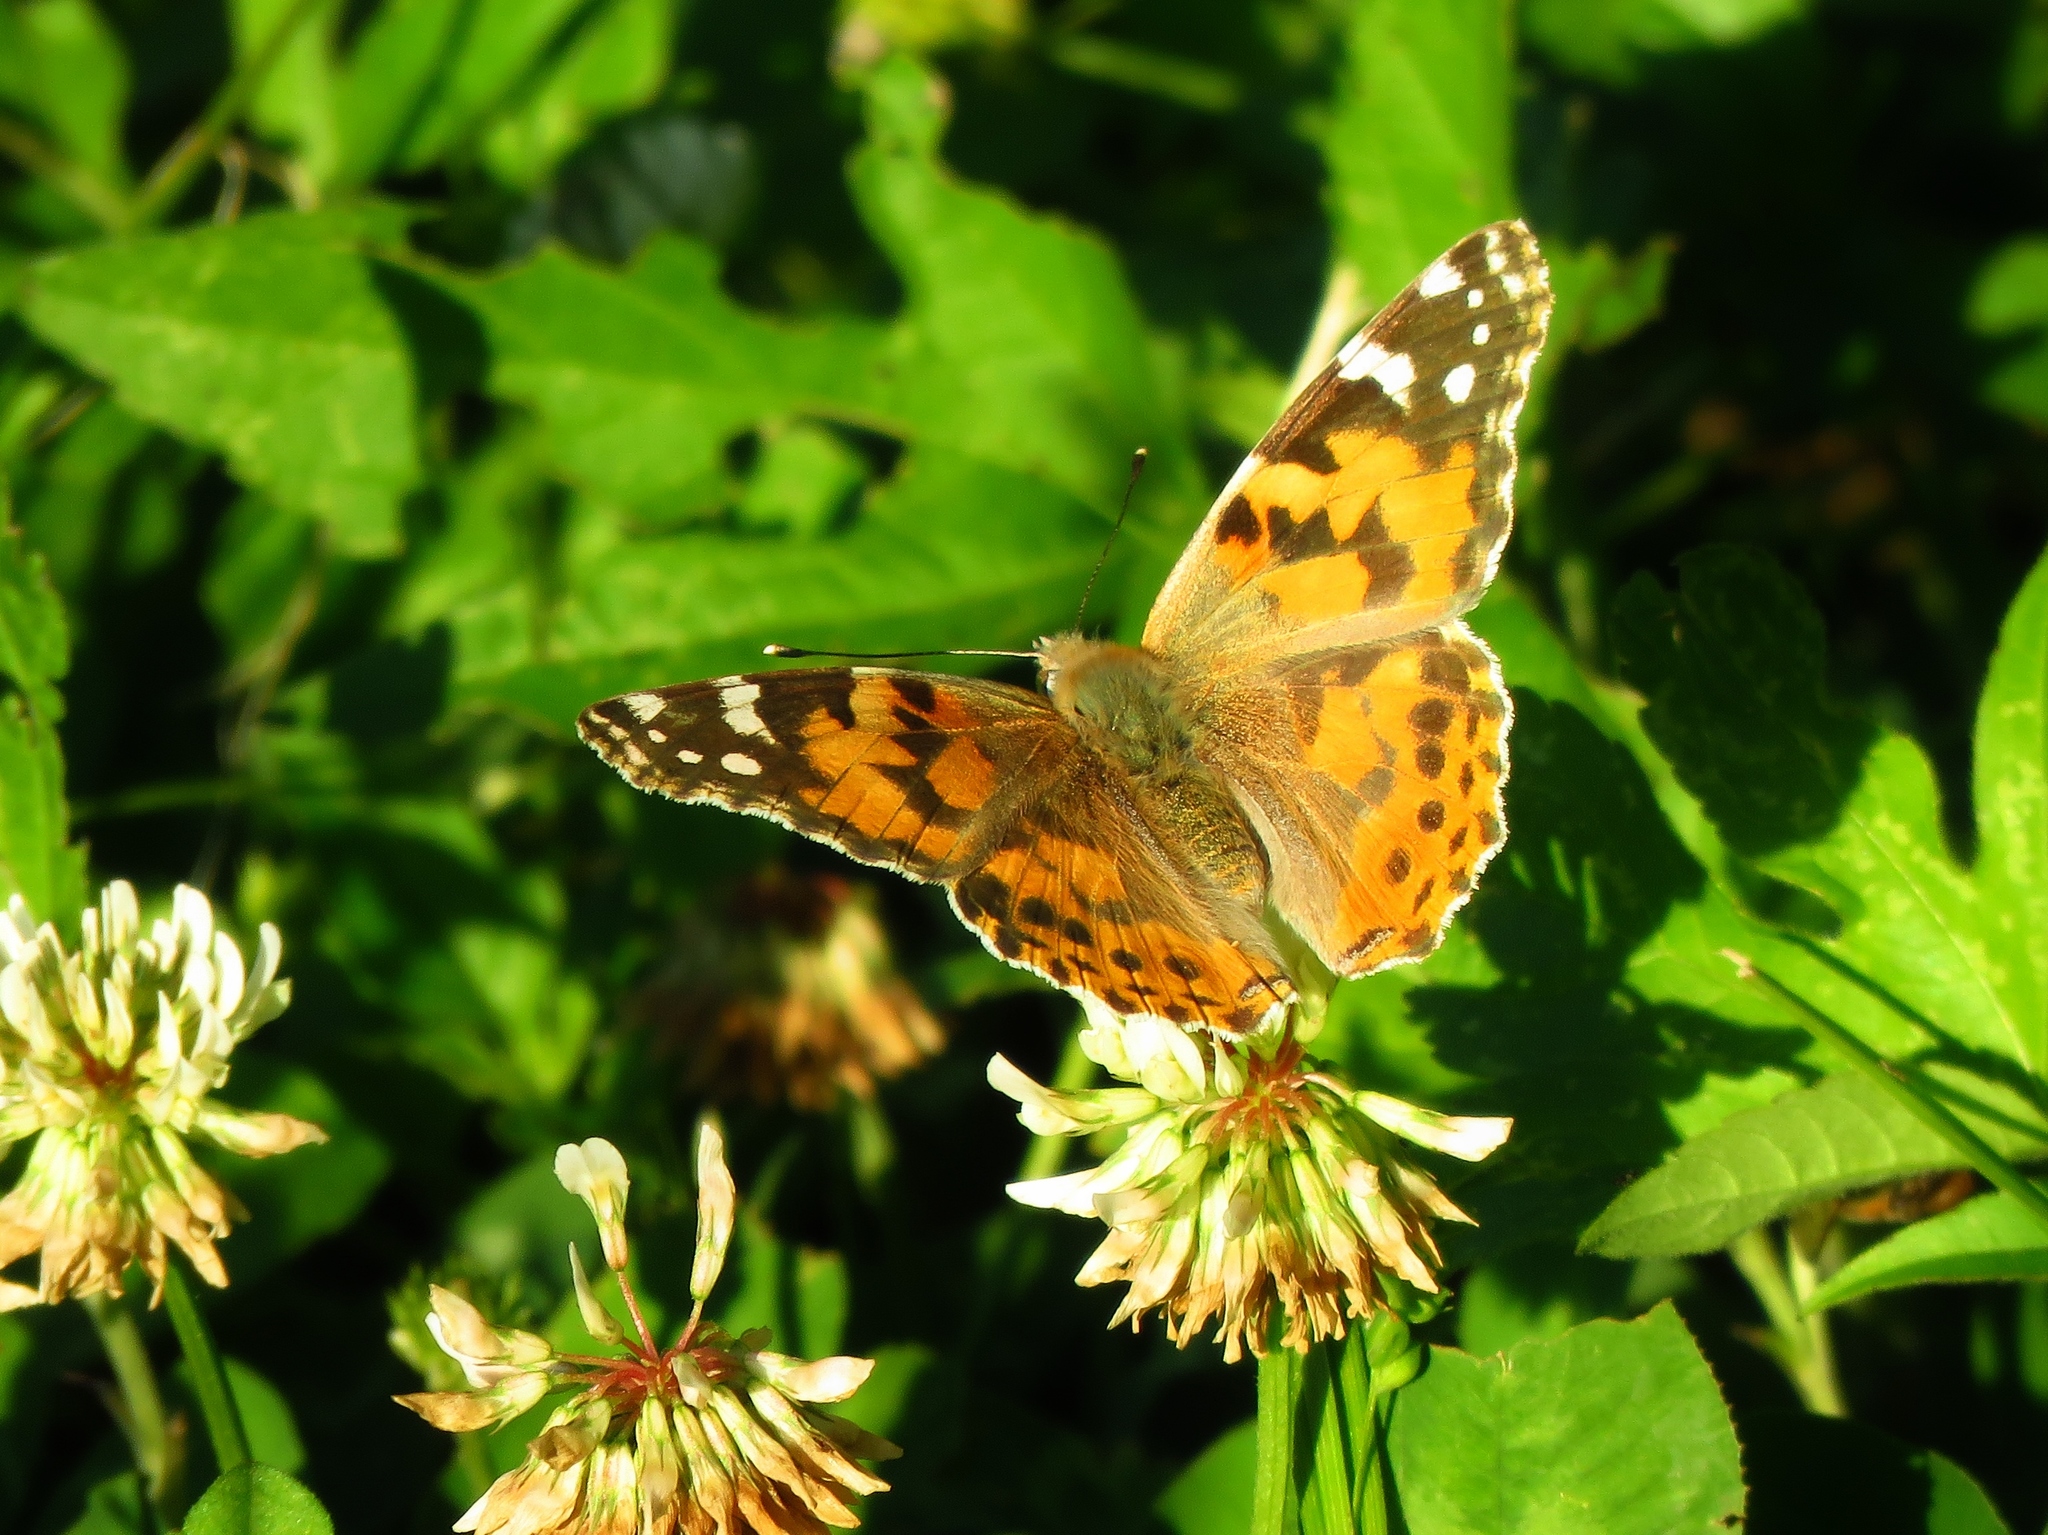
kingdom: Animalia
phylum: Arthropoda
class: Insecta
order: Lepidoptera
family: Nymphalidae
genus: Vanessa
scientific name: Vanessa cardui
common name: Painted lady
